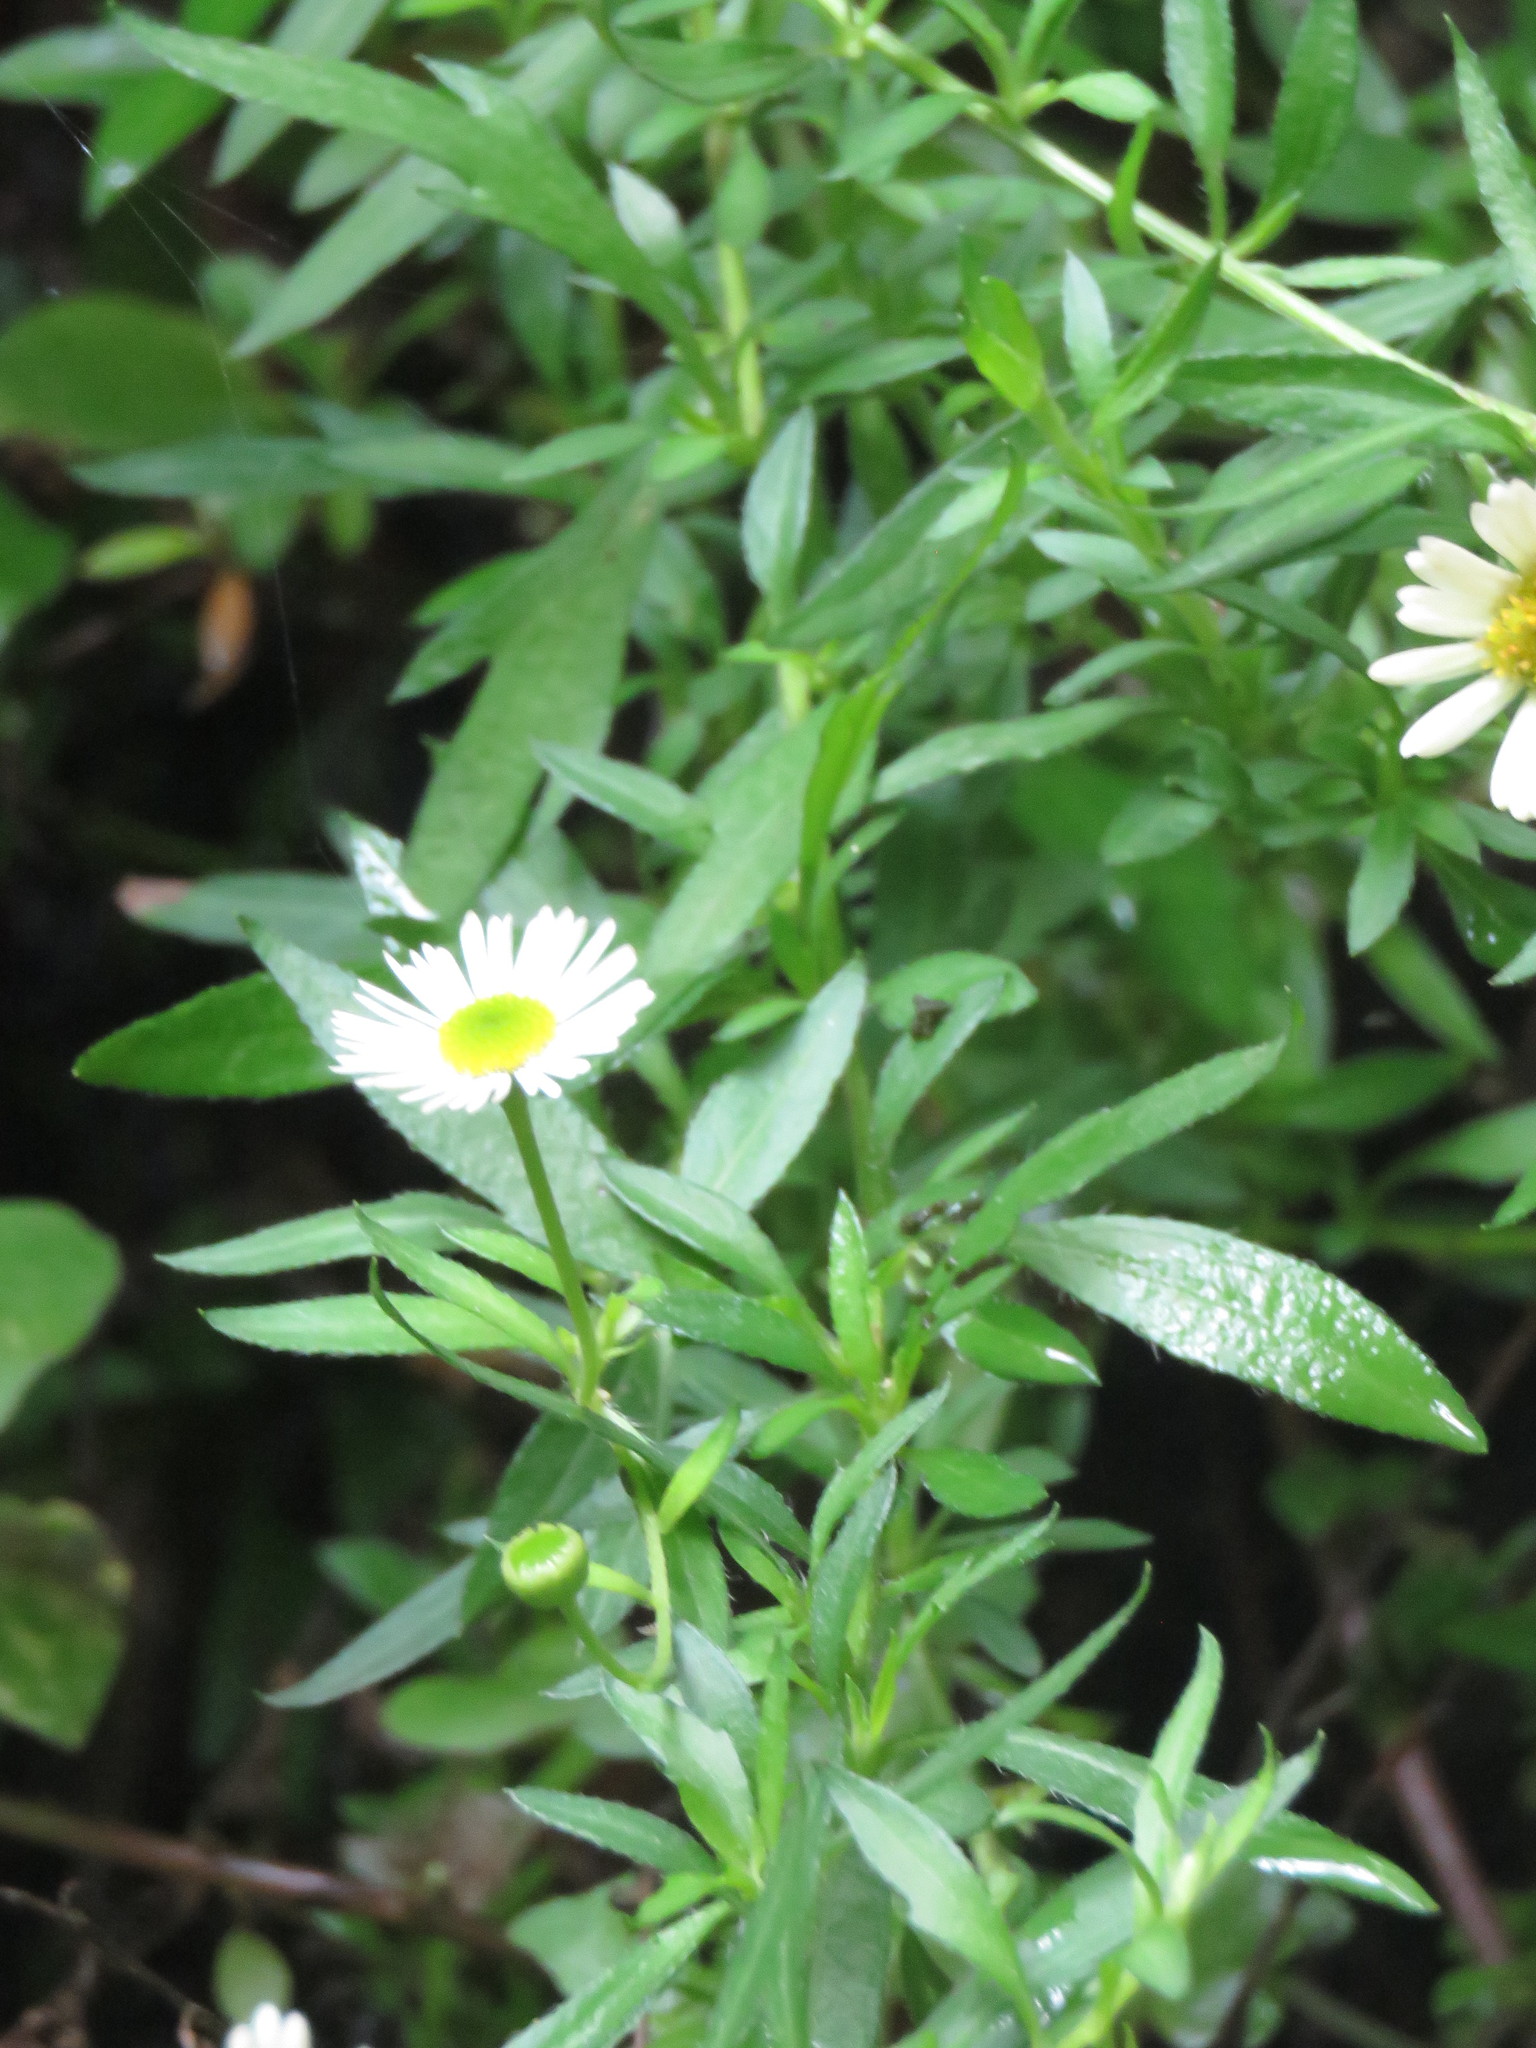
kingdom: Plantae
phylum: Tracheophyta
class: Magnoliopsida
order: Asterales
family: Asteraceae
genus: Erigeron
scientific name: Erigeron karvinskianus
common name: Mexican fleabane
